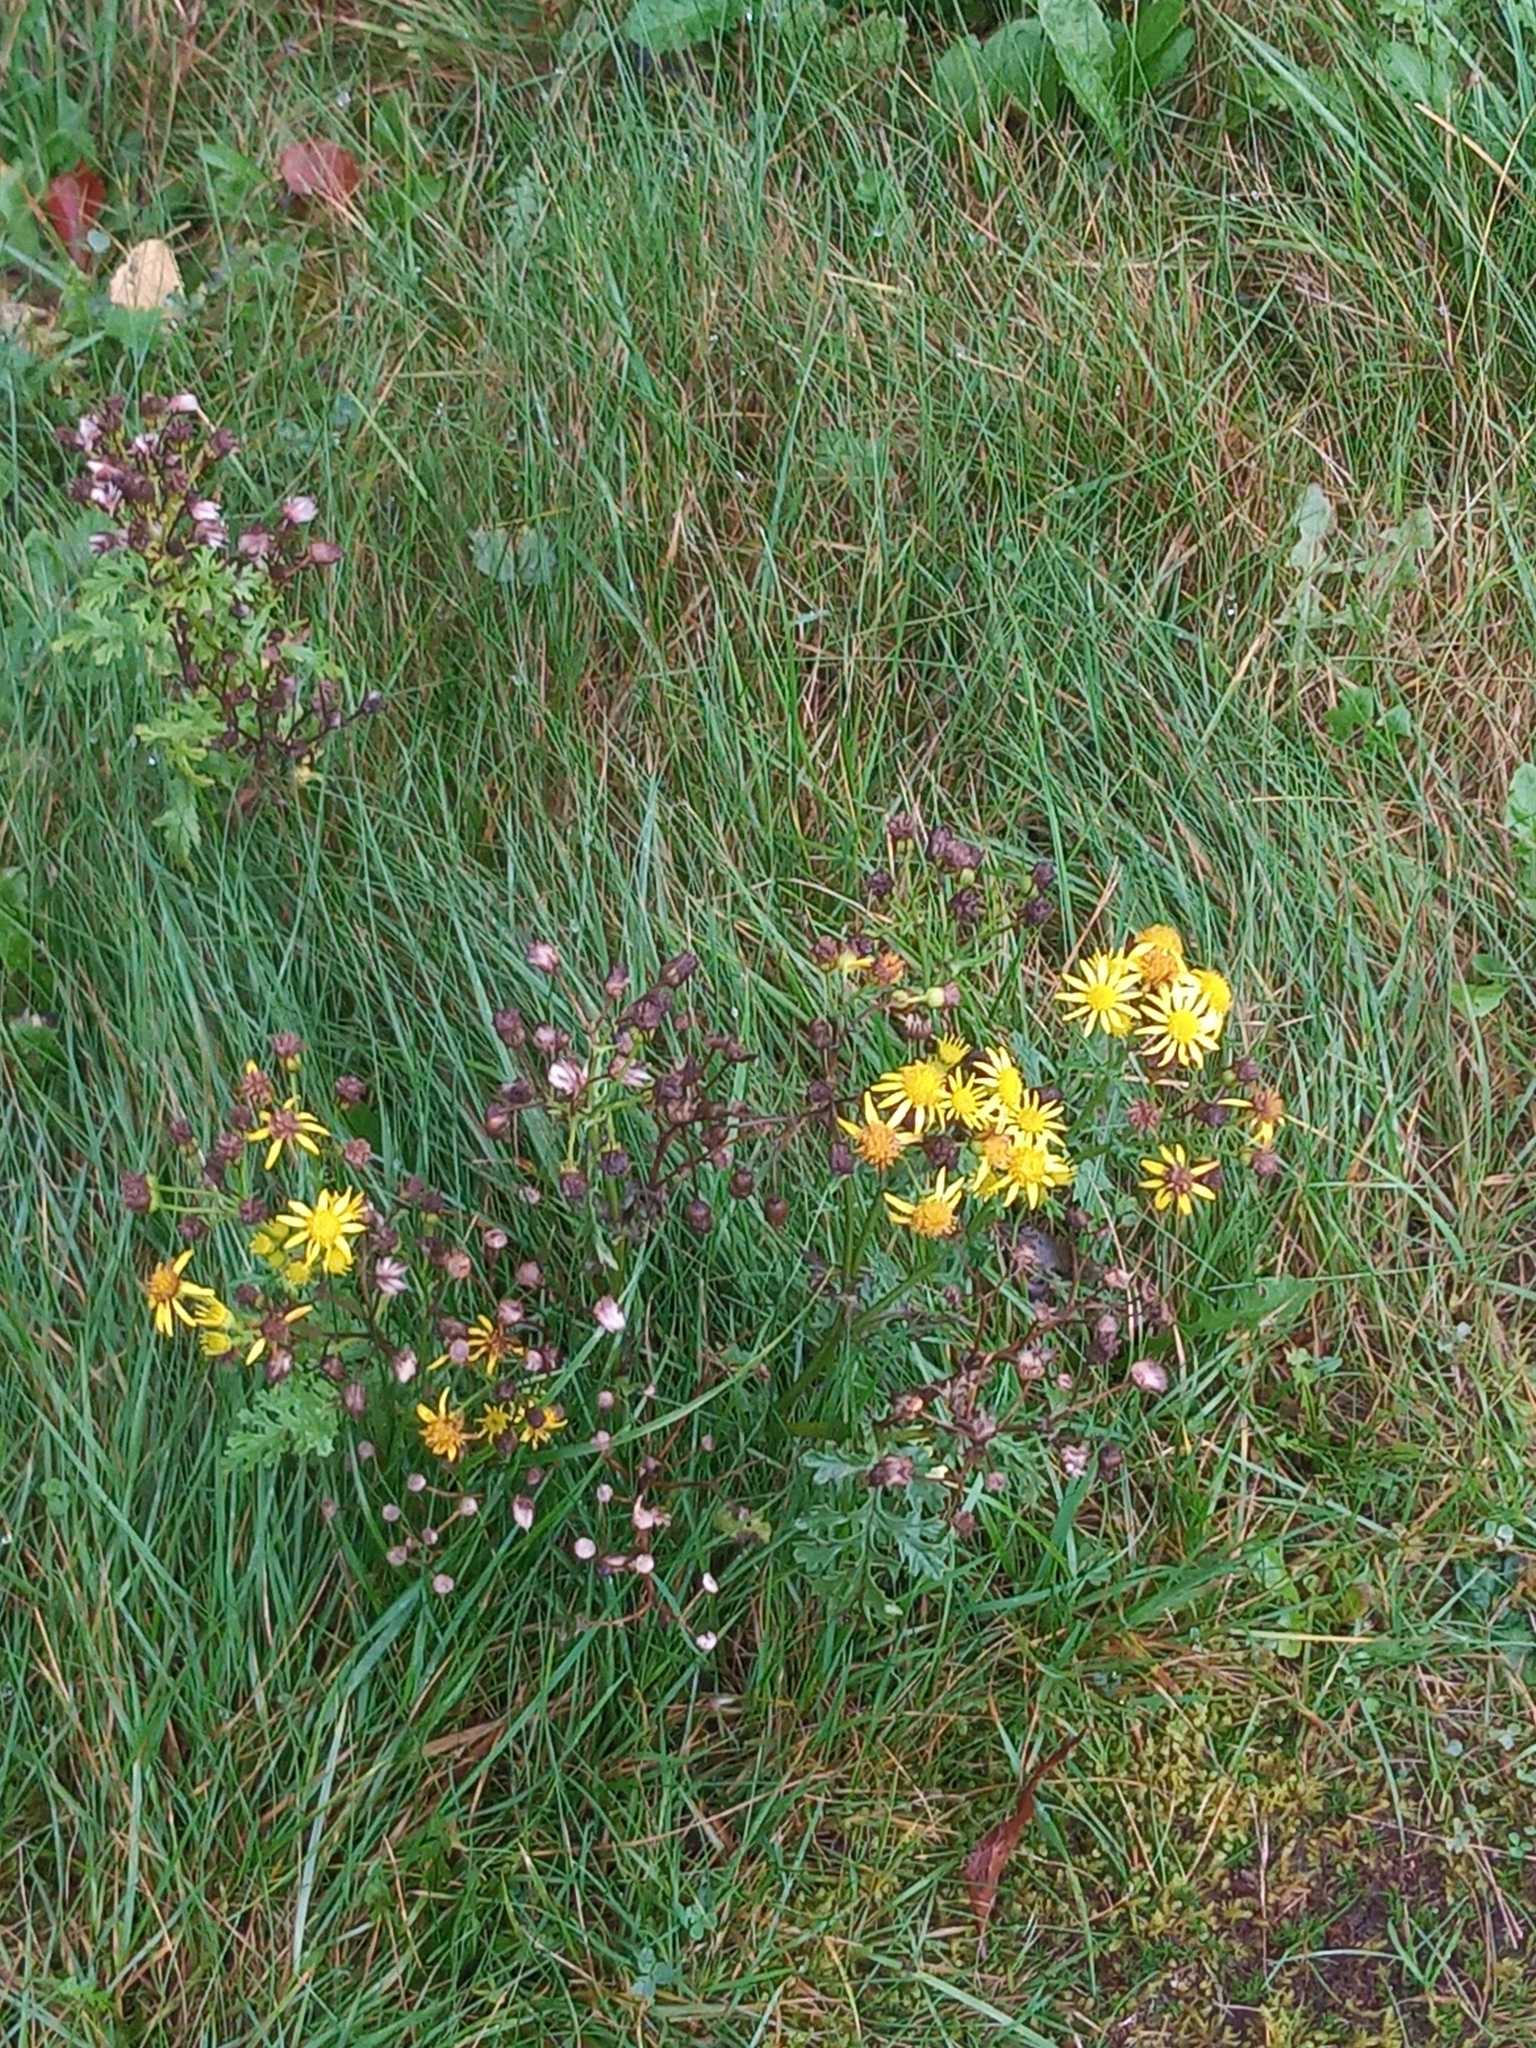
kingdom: Plantae
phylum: Tracheophyta
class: Magnoliopsida
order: Asterales
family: Asteraceae
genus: Jacobaea
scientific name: Jacobaea vulgaris
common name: Stinking willie
